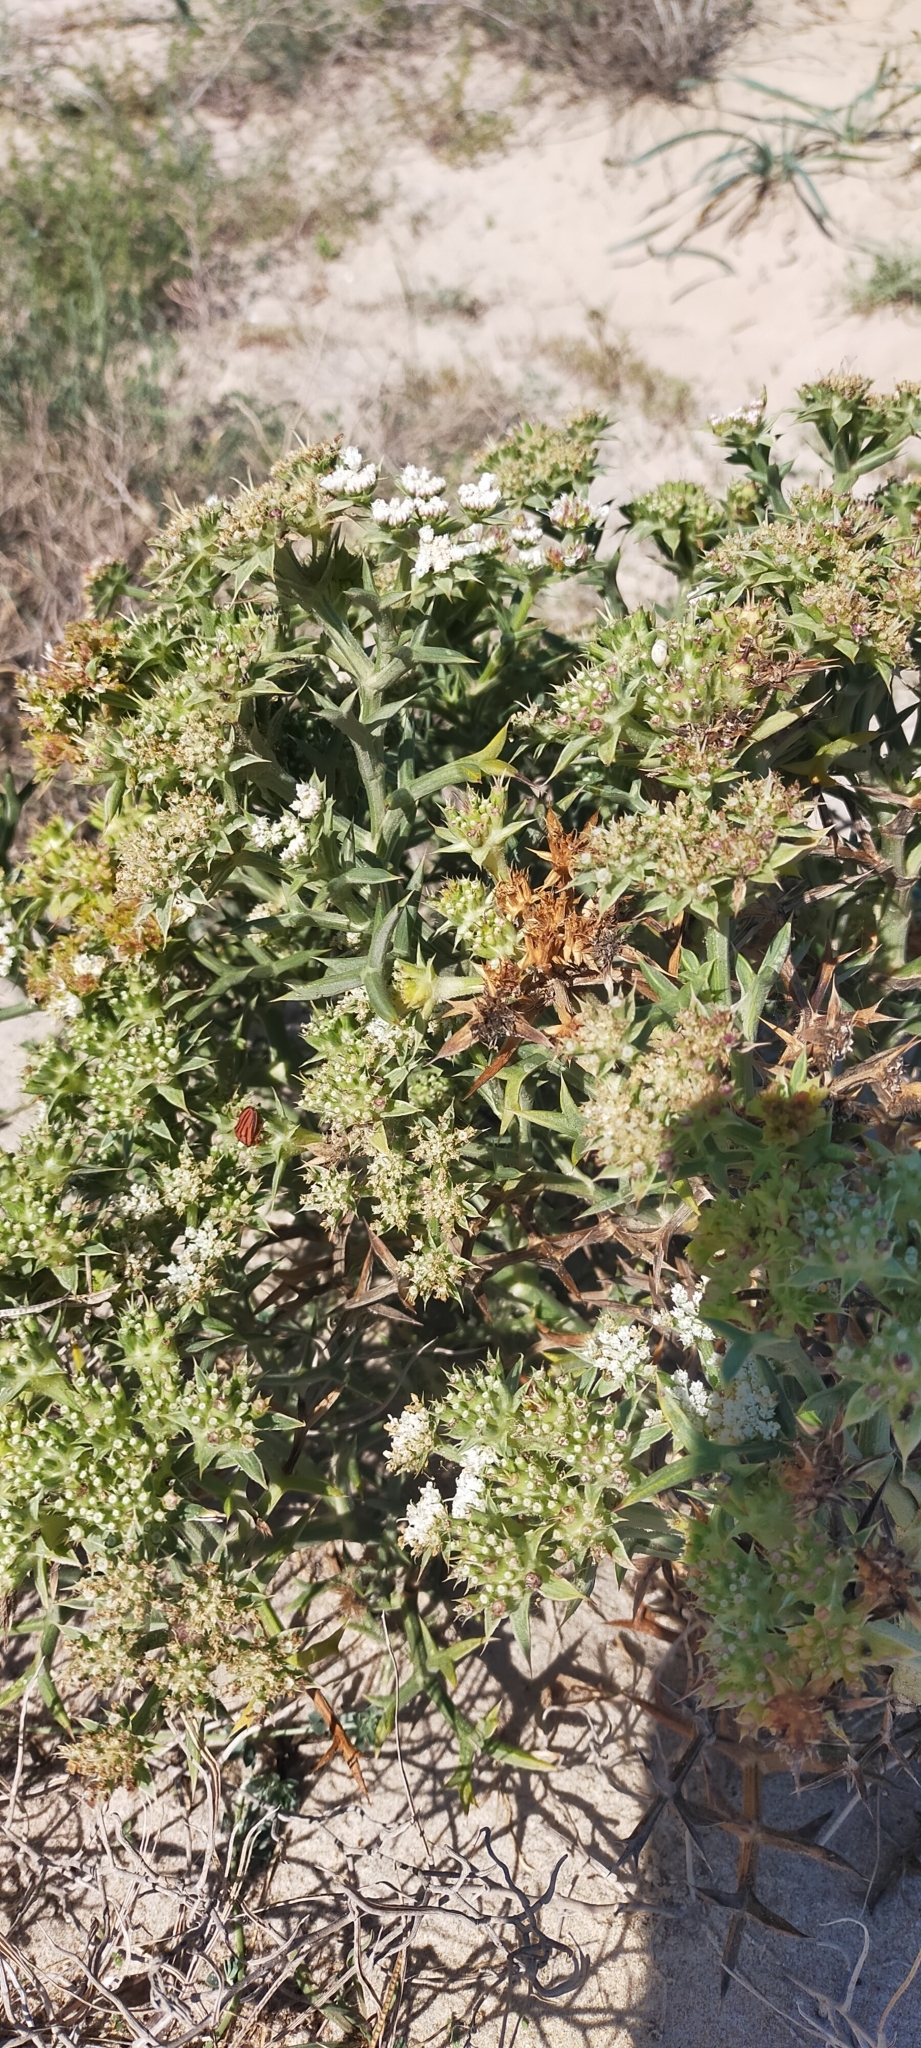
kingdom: Plantae
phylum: Tracheophyta
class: Magnoliopsida
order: Apiales
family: Apiaceae
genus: Echinophora
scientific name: Echinophora spinosa
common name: Prickly samphire
